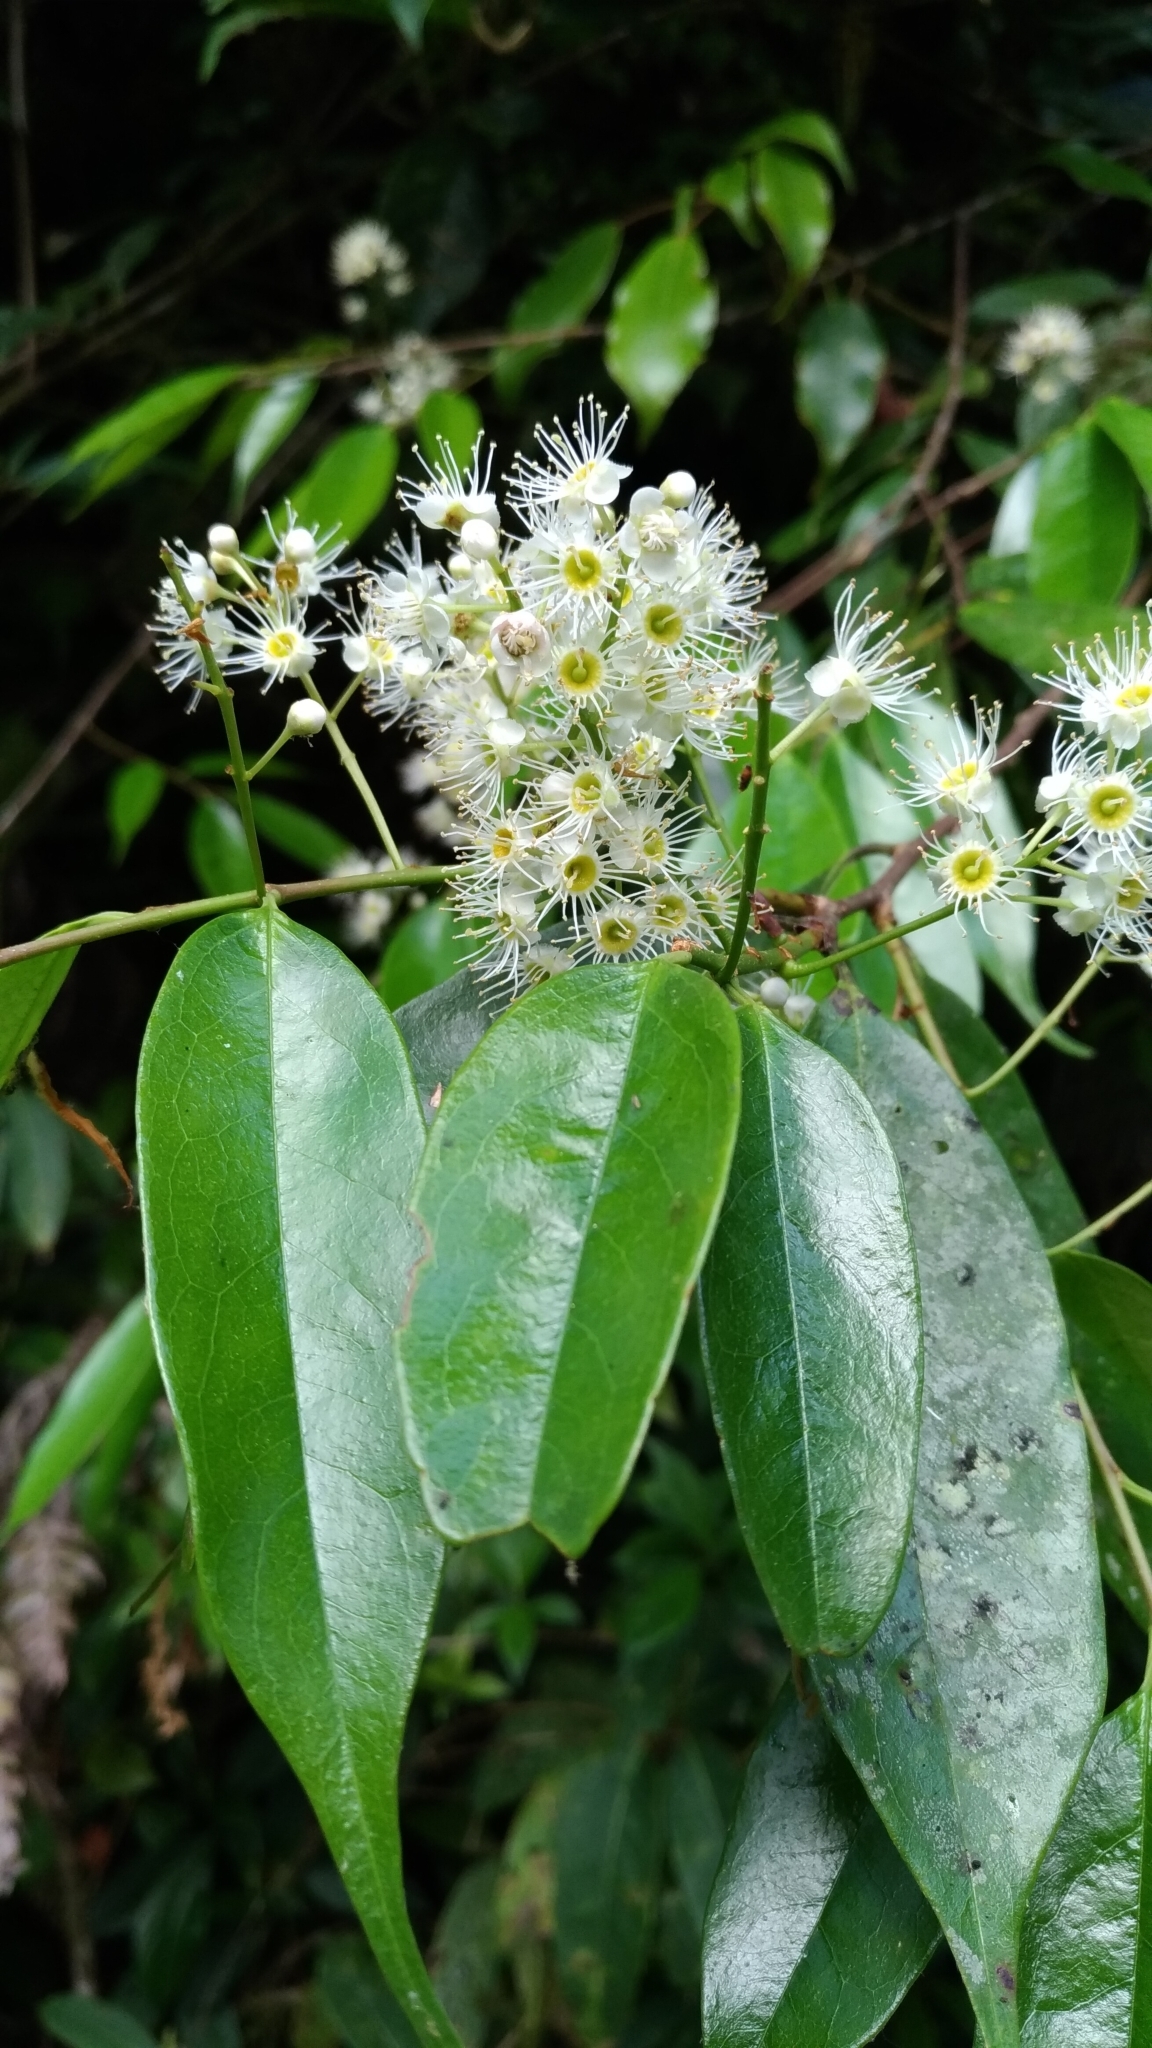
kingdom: Plantae
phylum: Tracheophyta
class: Magnoliopsida
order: Rosales
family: Rosaceae
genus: Prunus
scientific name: Prunus phaeosticta
